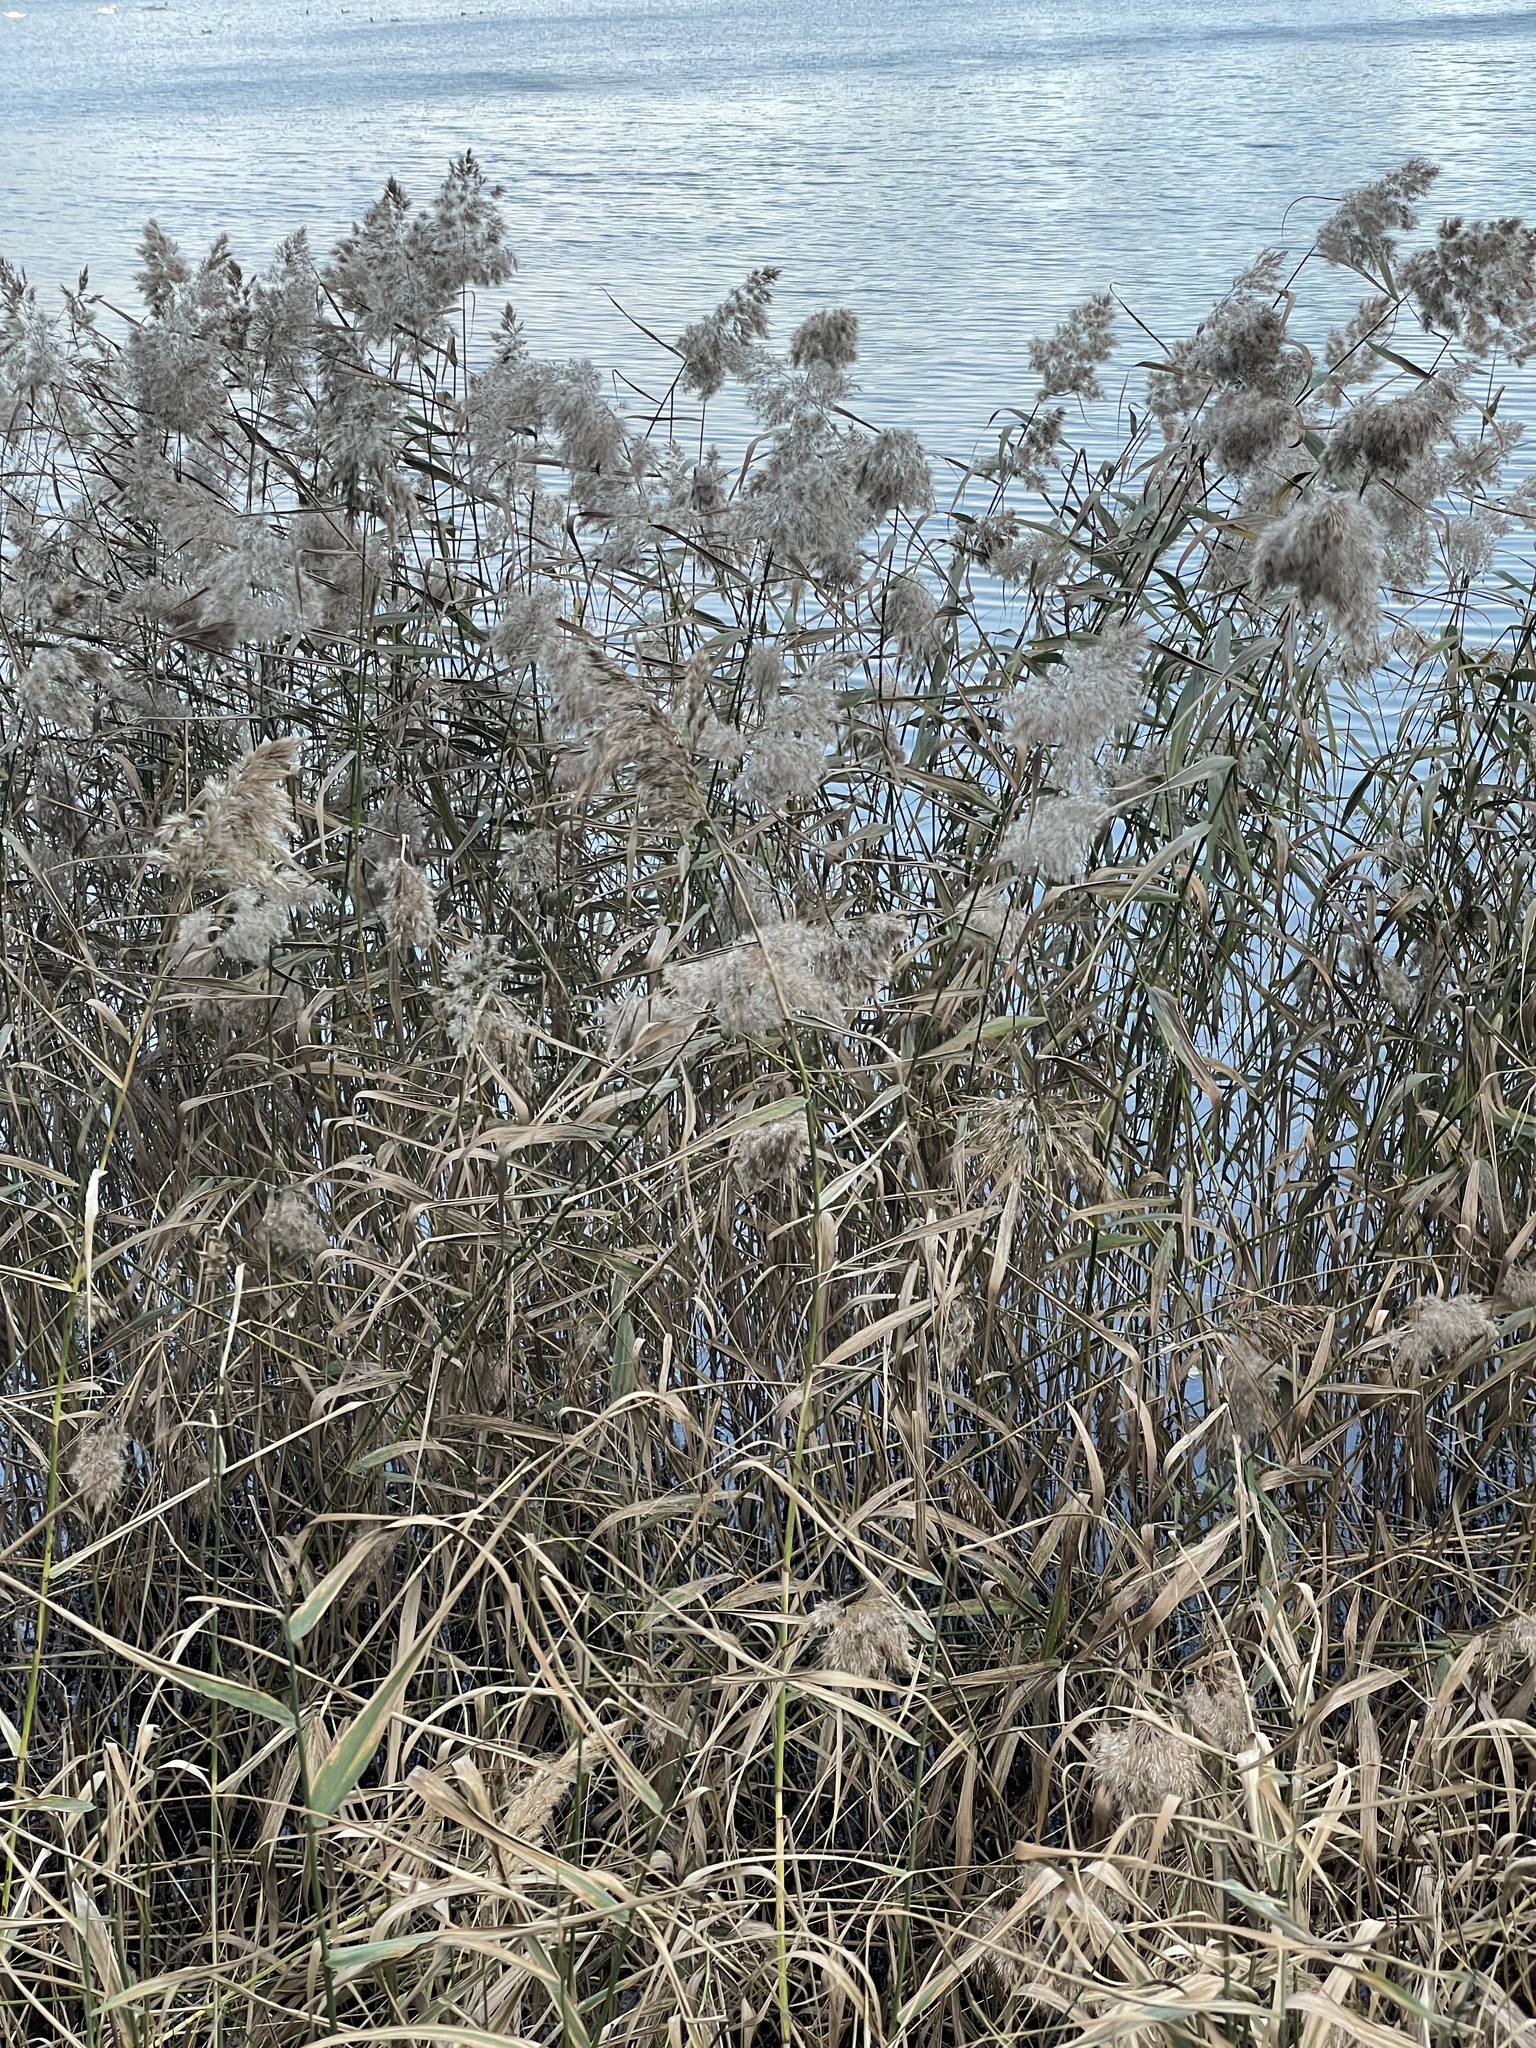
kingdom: Plantae
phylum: Tracheophyta
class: Liliopsida
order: Poales
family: Poaceae
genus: Phragmites
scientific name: Phragmites australis
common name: Common reed
